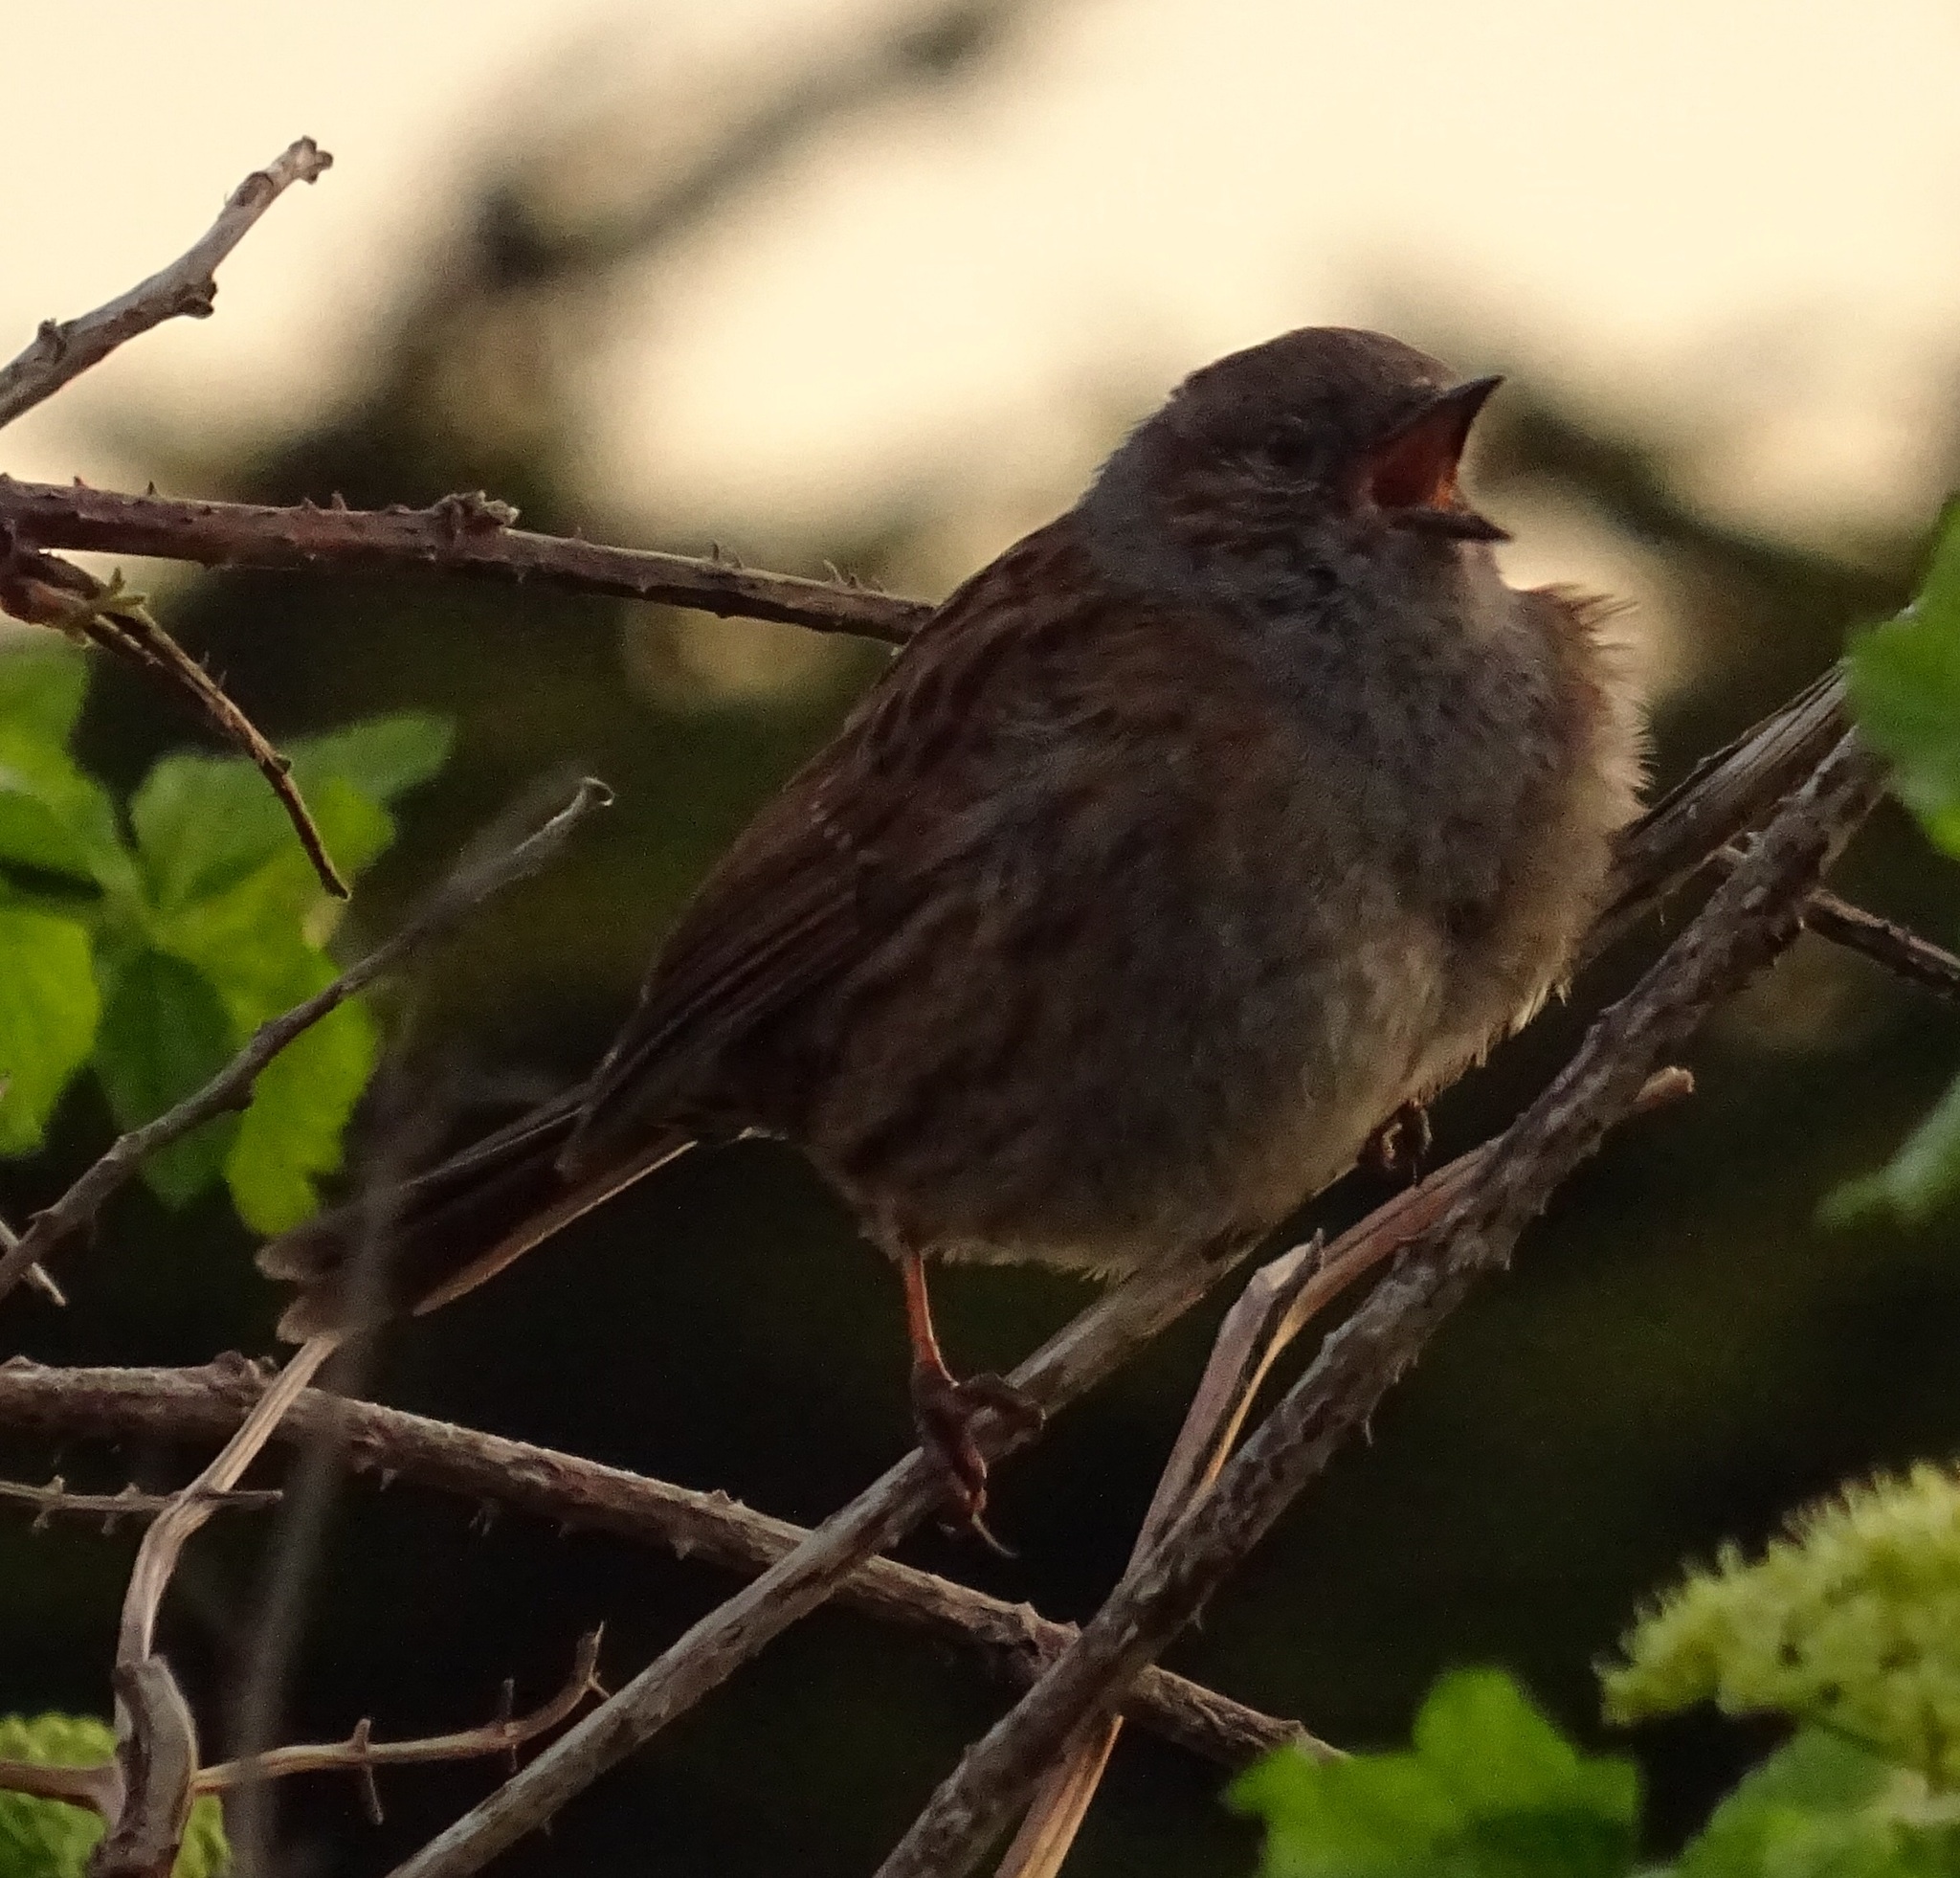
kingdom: Animalia
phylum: Chordata
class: Aves
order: Passeriformes
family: Prunellidae
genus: Prunella
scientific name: Prunella modularis
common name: Dunnock
